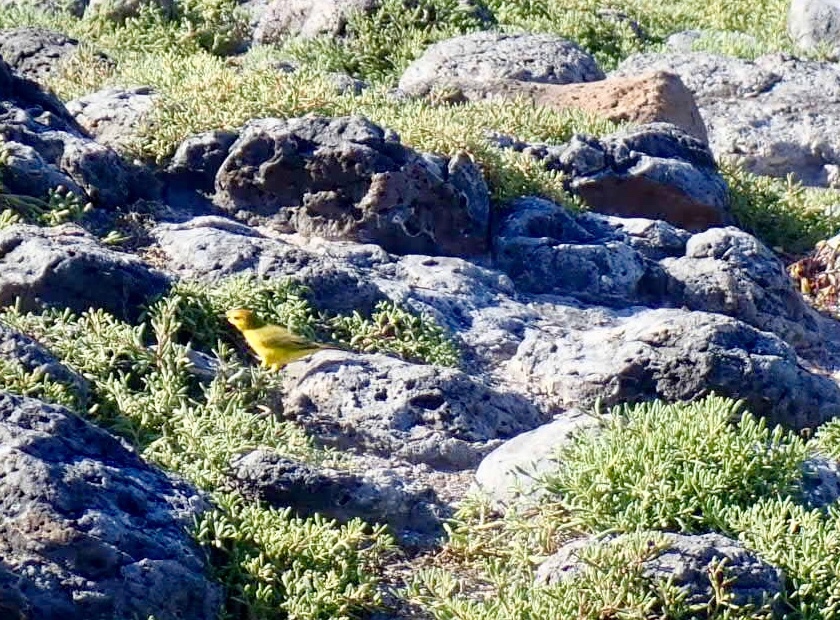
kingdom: Animalia
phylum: Chordata
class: Aves
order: Passeriformes
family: Parulidae
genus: Setophaga
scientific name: Setophaga petechia
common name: Yellow warbler
